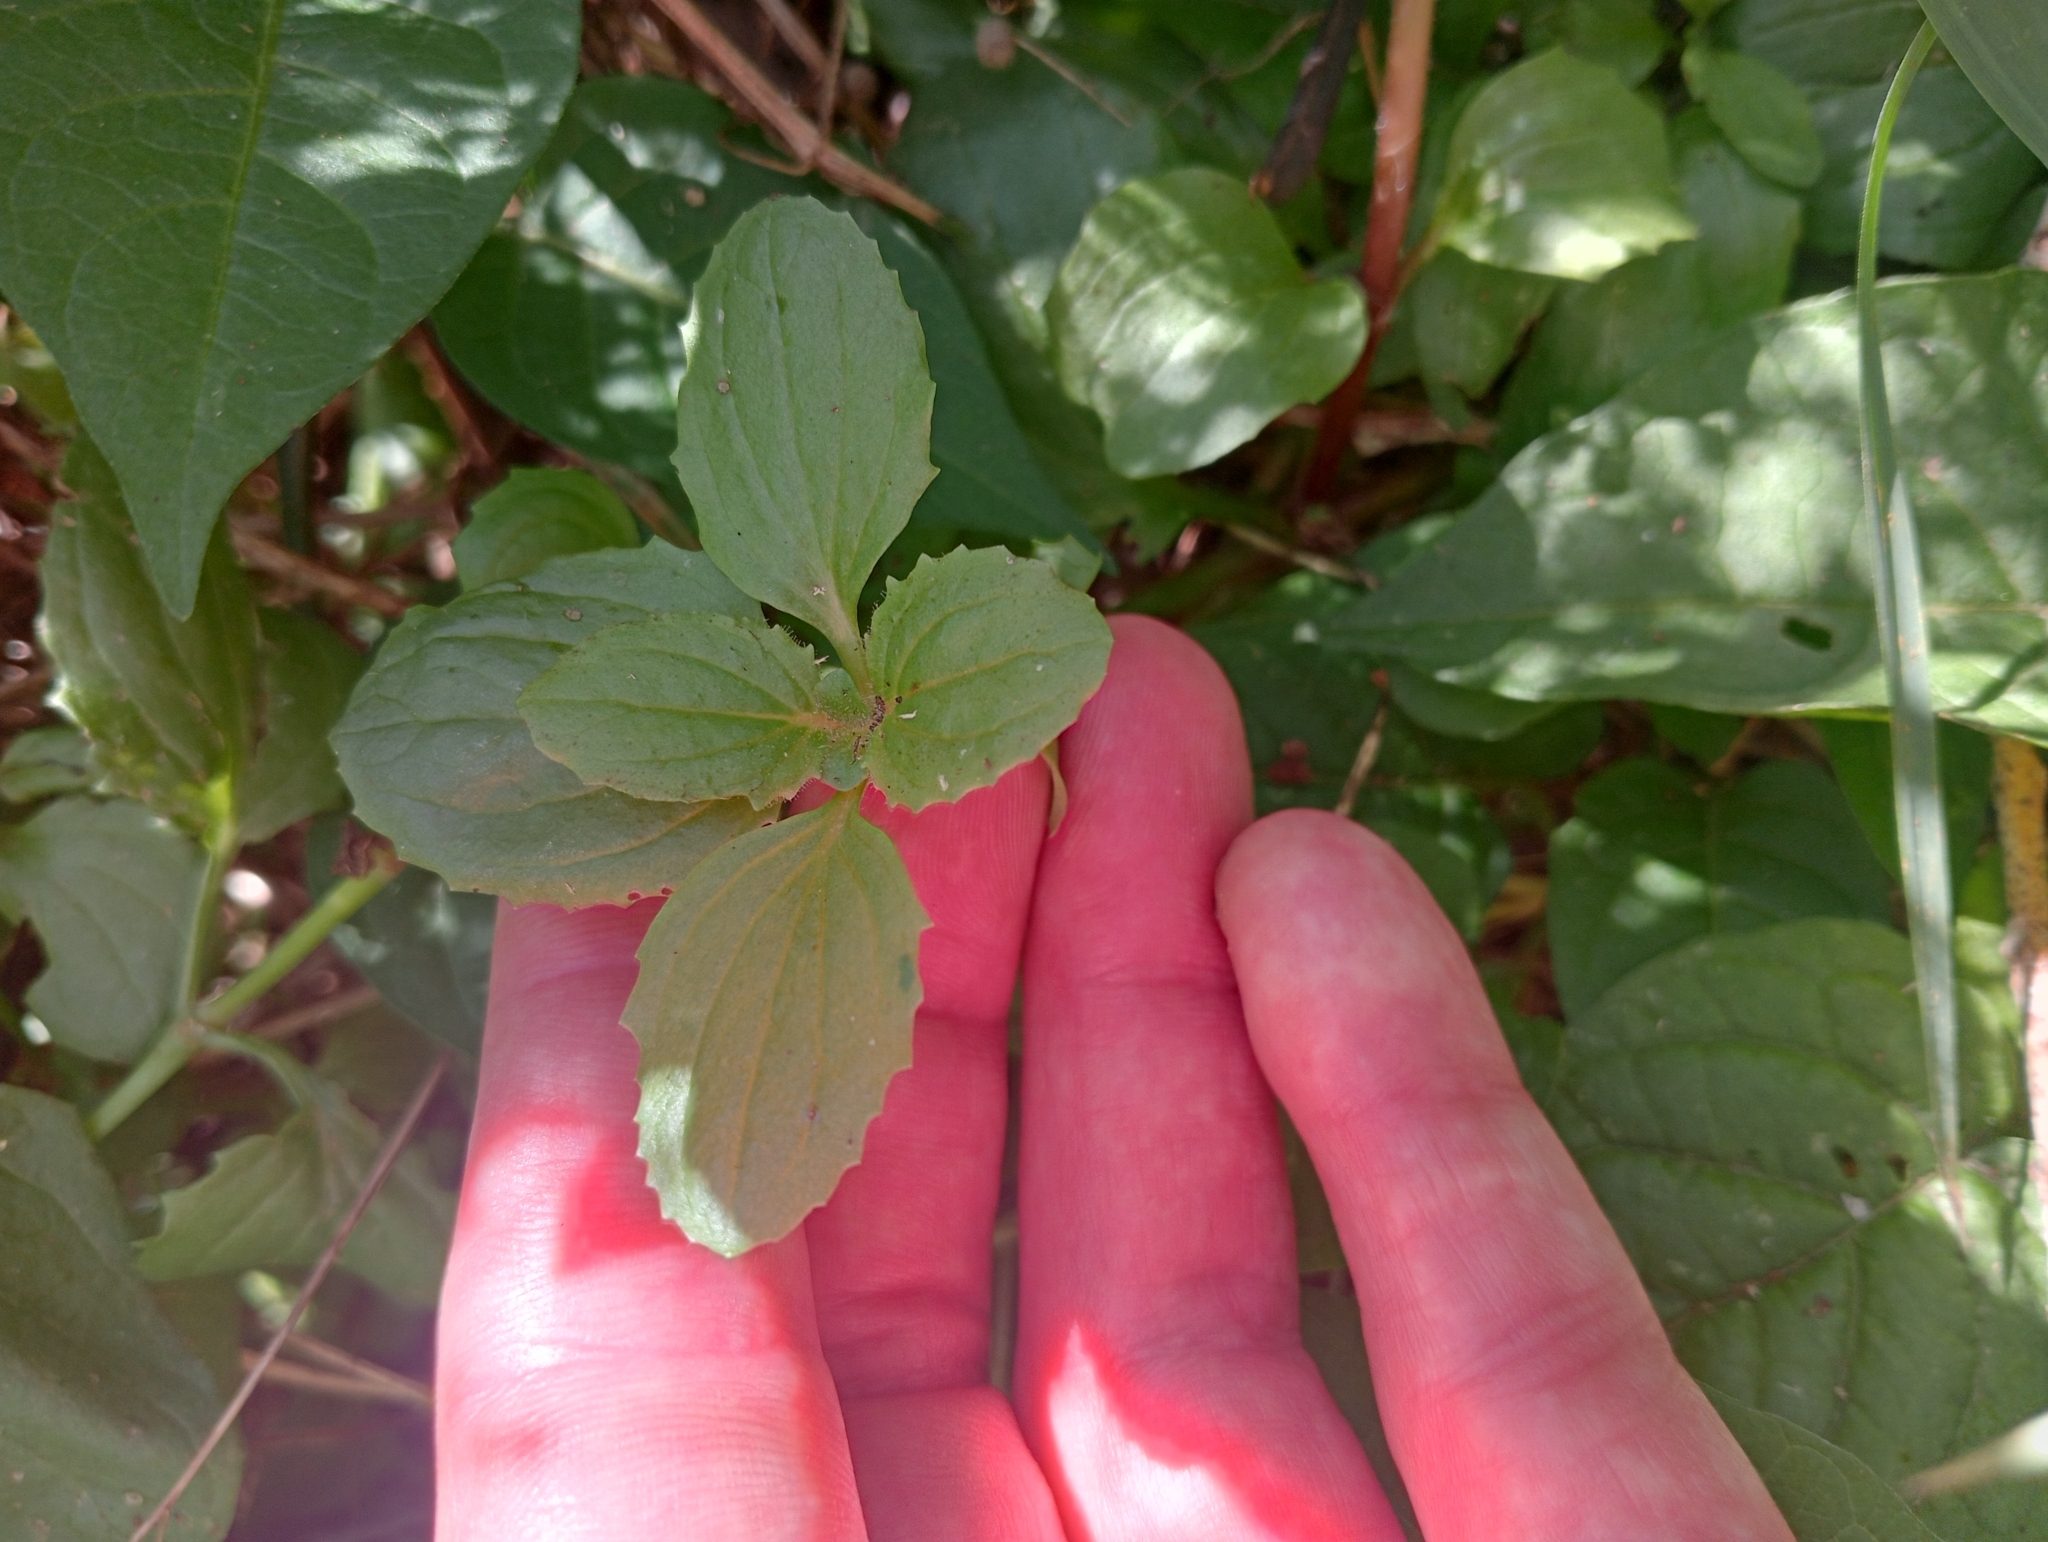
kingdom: Plantae
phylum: Tracheophyta
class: Magnoliopsida
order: Lamiales
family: Phrymaceae
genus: Erythranthe
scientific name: Erythranthe guttata
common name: Monkeyflower
